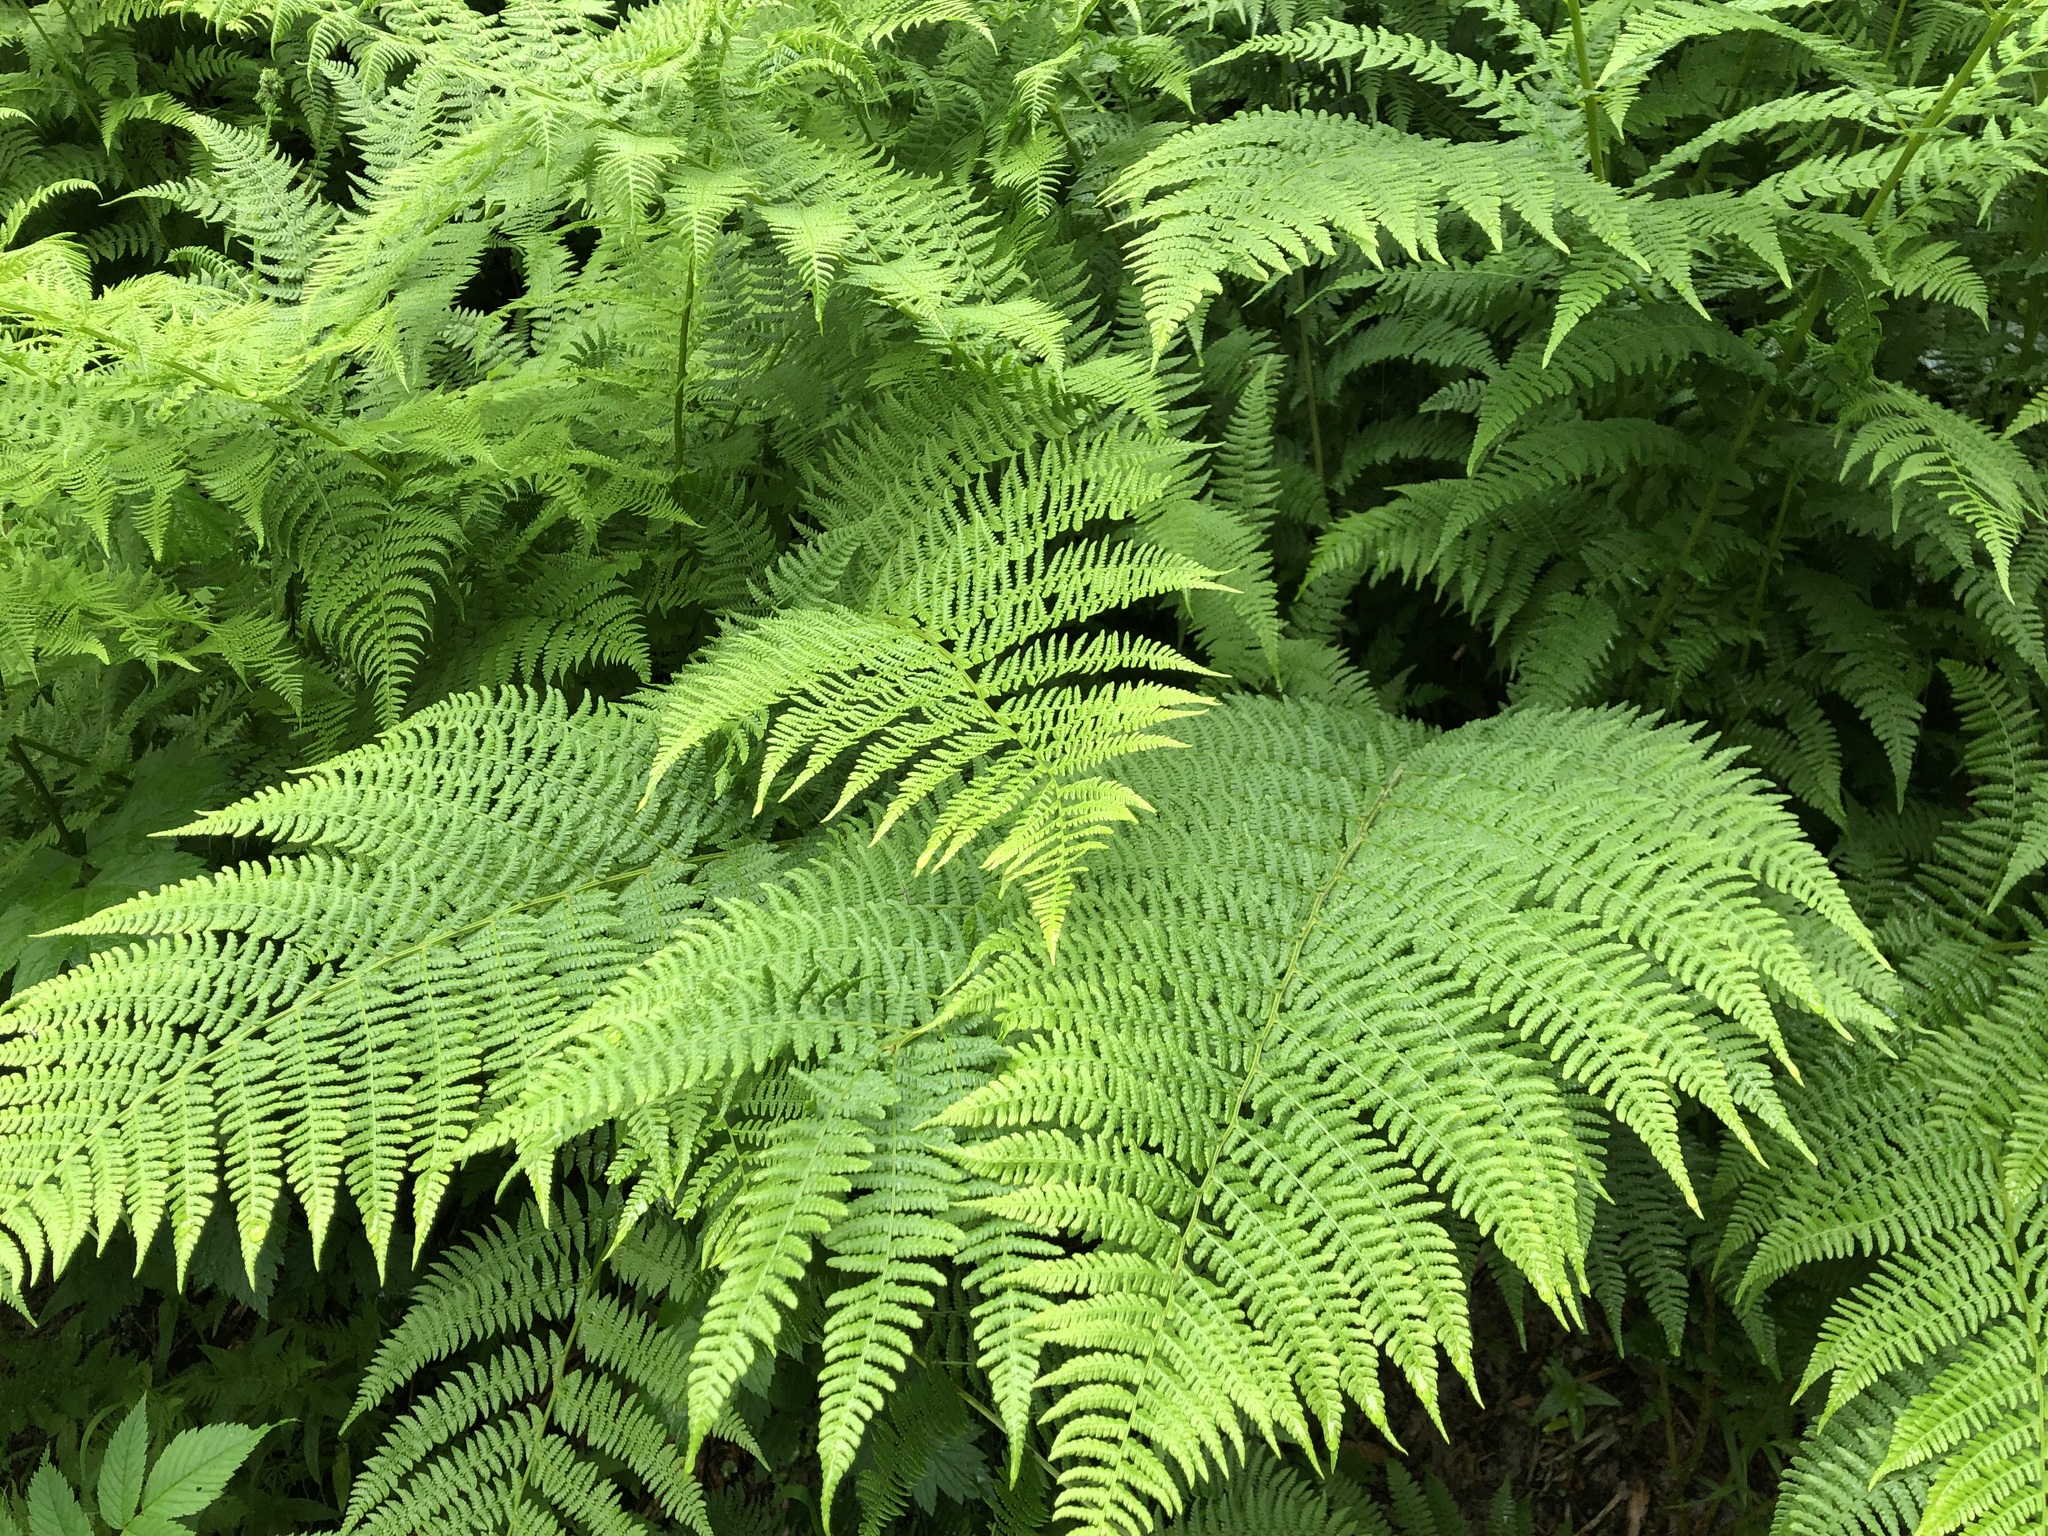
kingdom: Plantae
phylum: Tracheophyta
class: Polypodiopsida
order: Polypodiales
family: Athyriaceae
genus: Athyrium
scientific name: Athyrium filix-femina
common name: Lady fern
